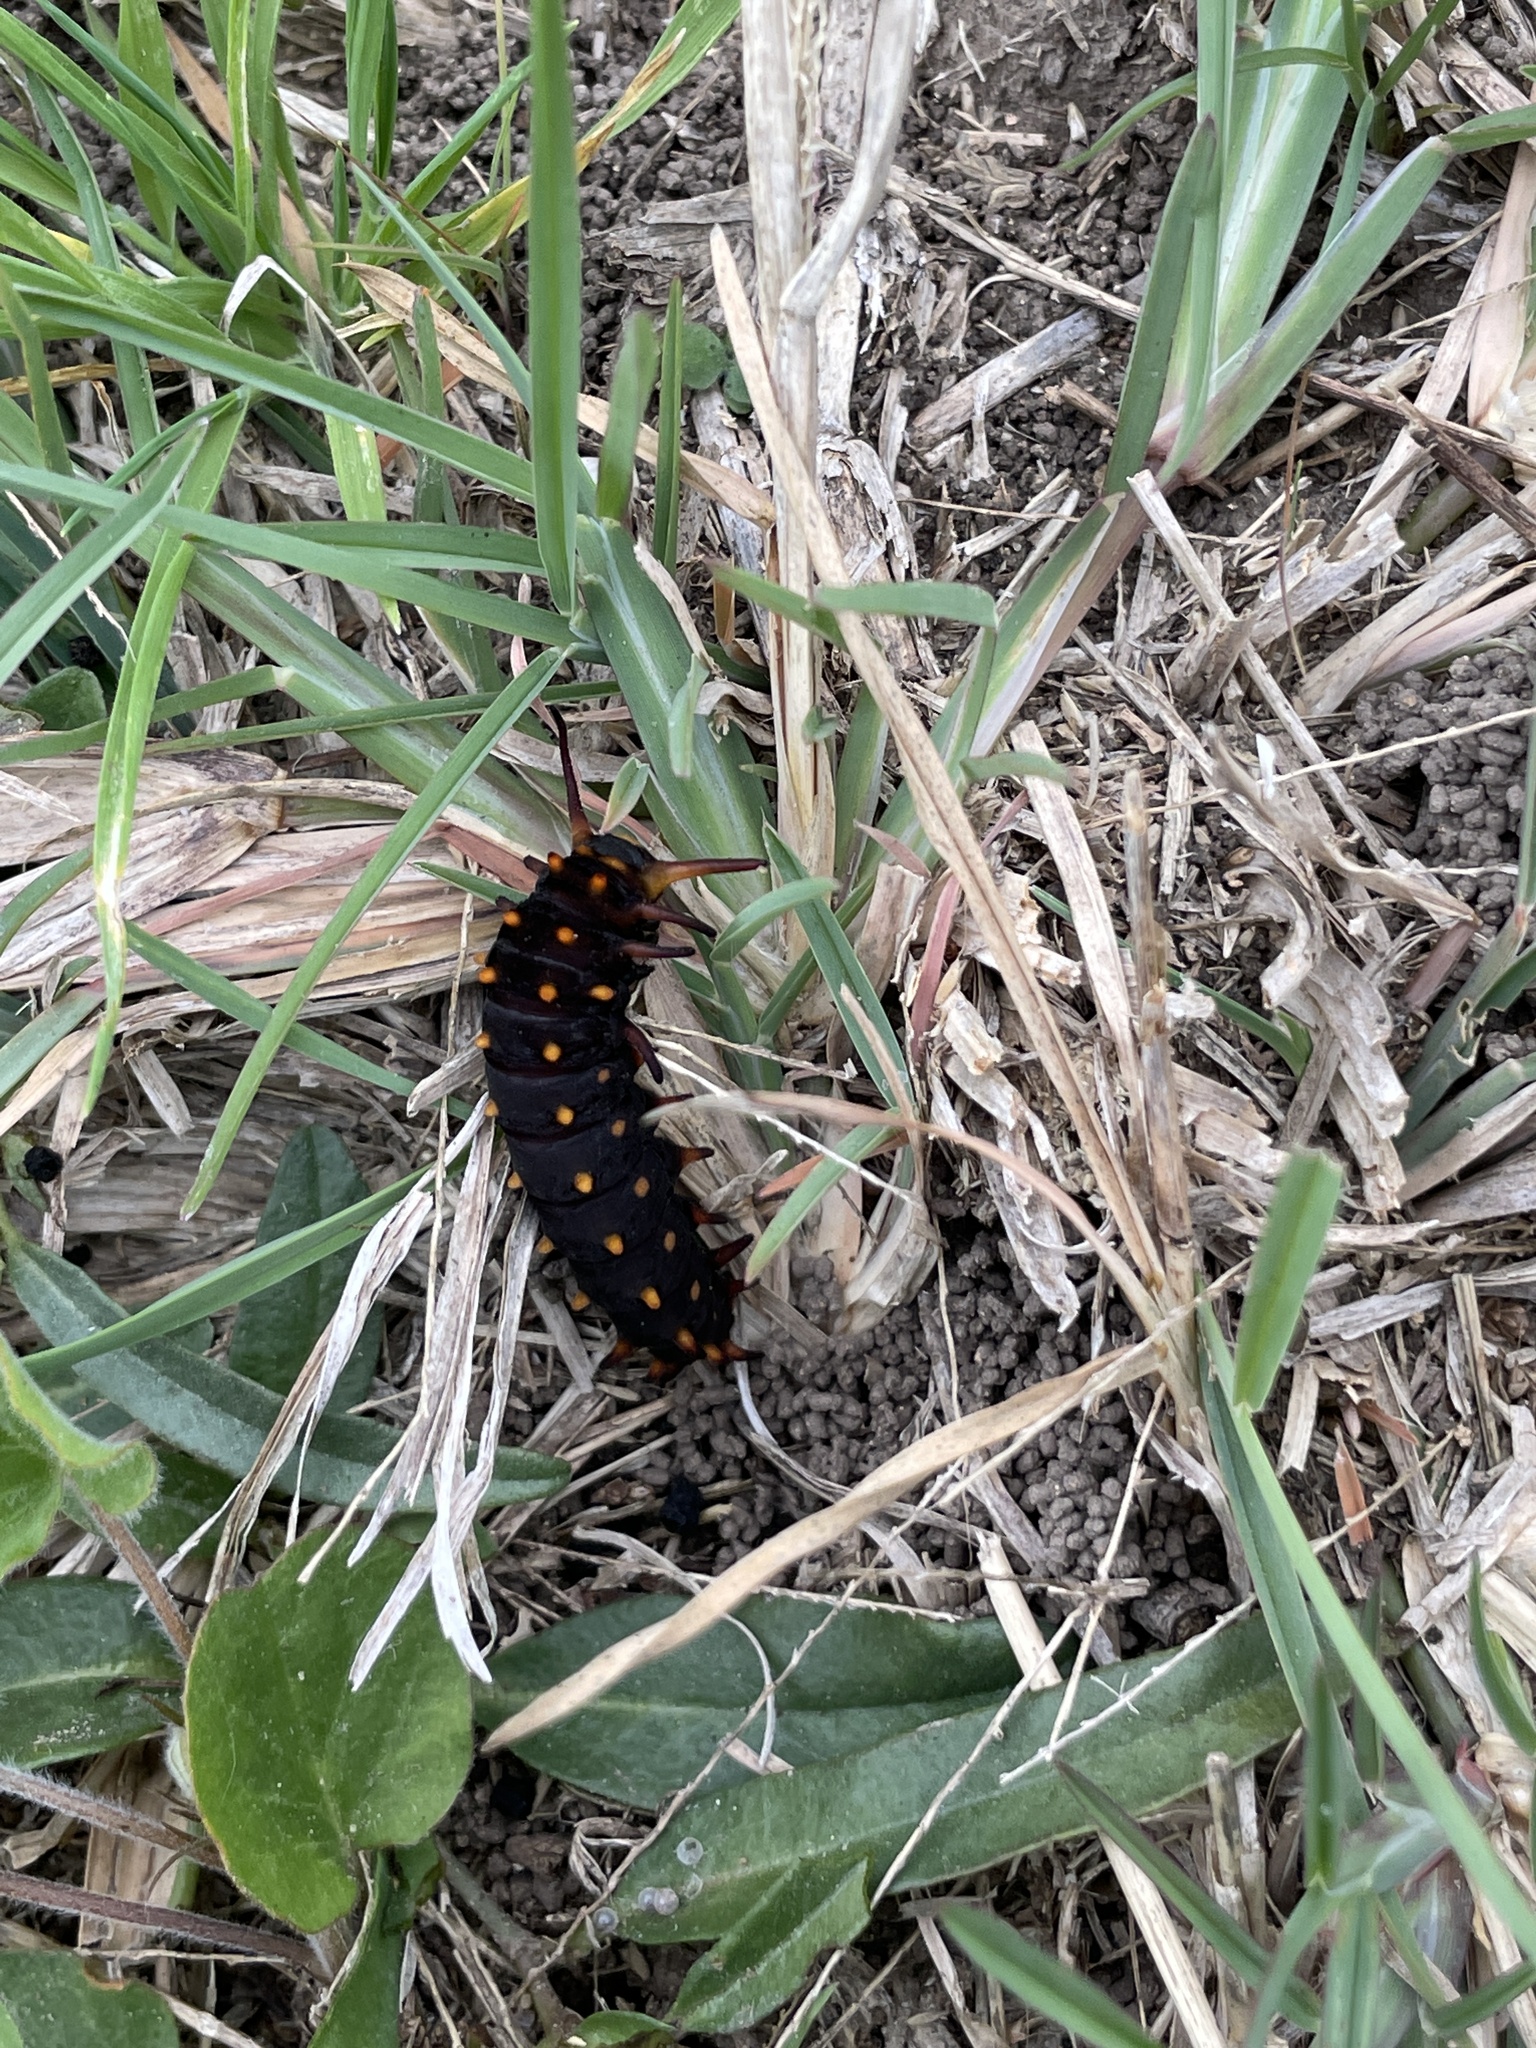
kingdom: Animalia
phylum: Arthropoda
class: Insecta
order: Lepidoptera
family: Papilionidae
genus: Battus
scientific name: Battus philenor
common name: Pipevine swallowtail
